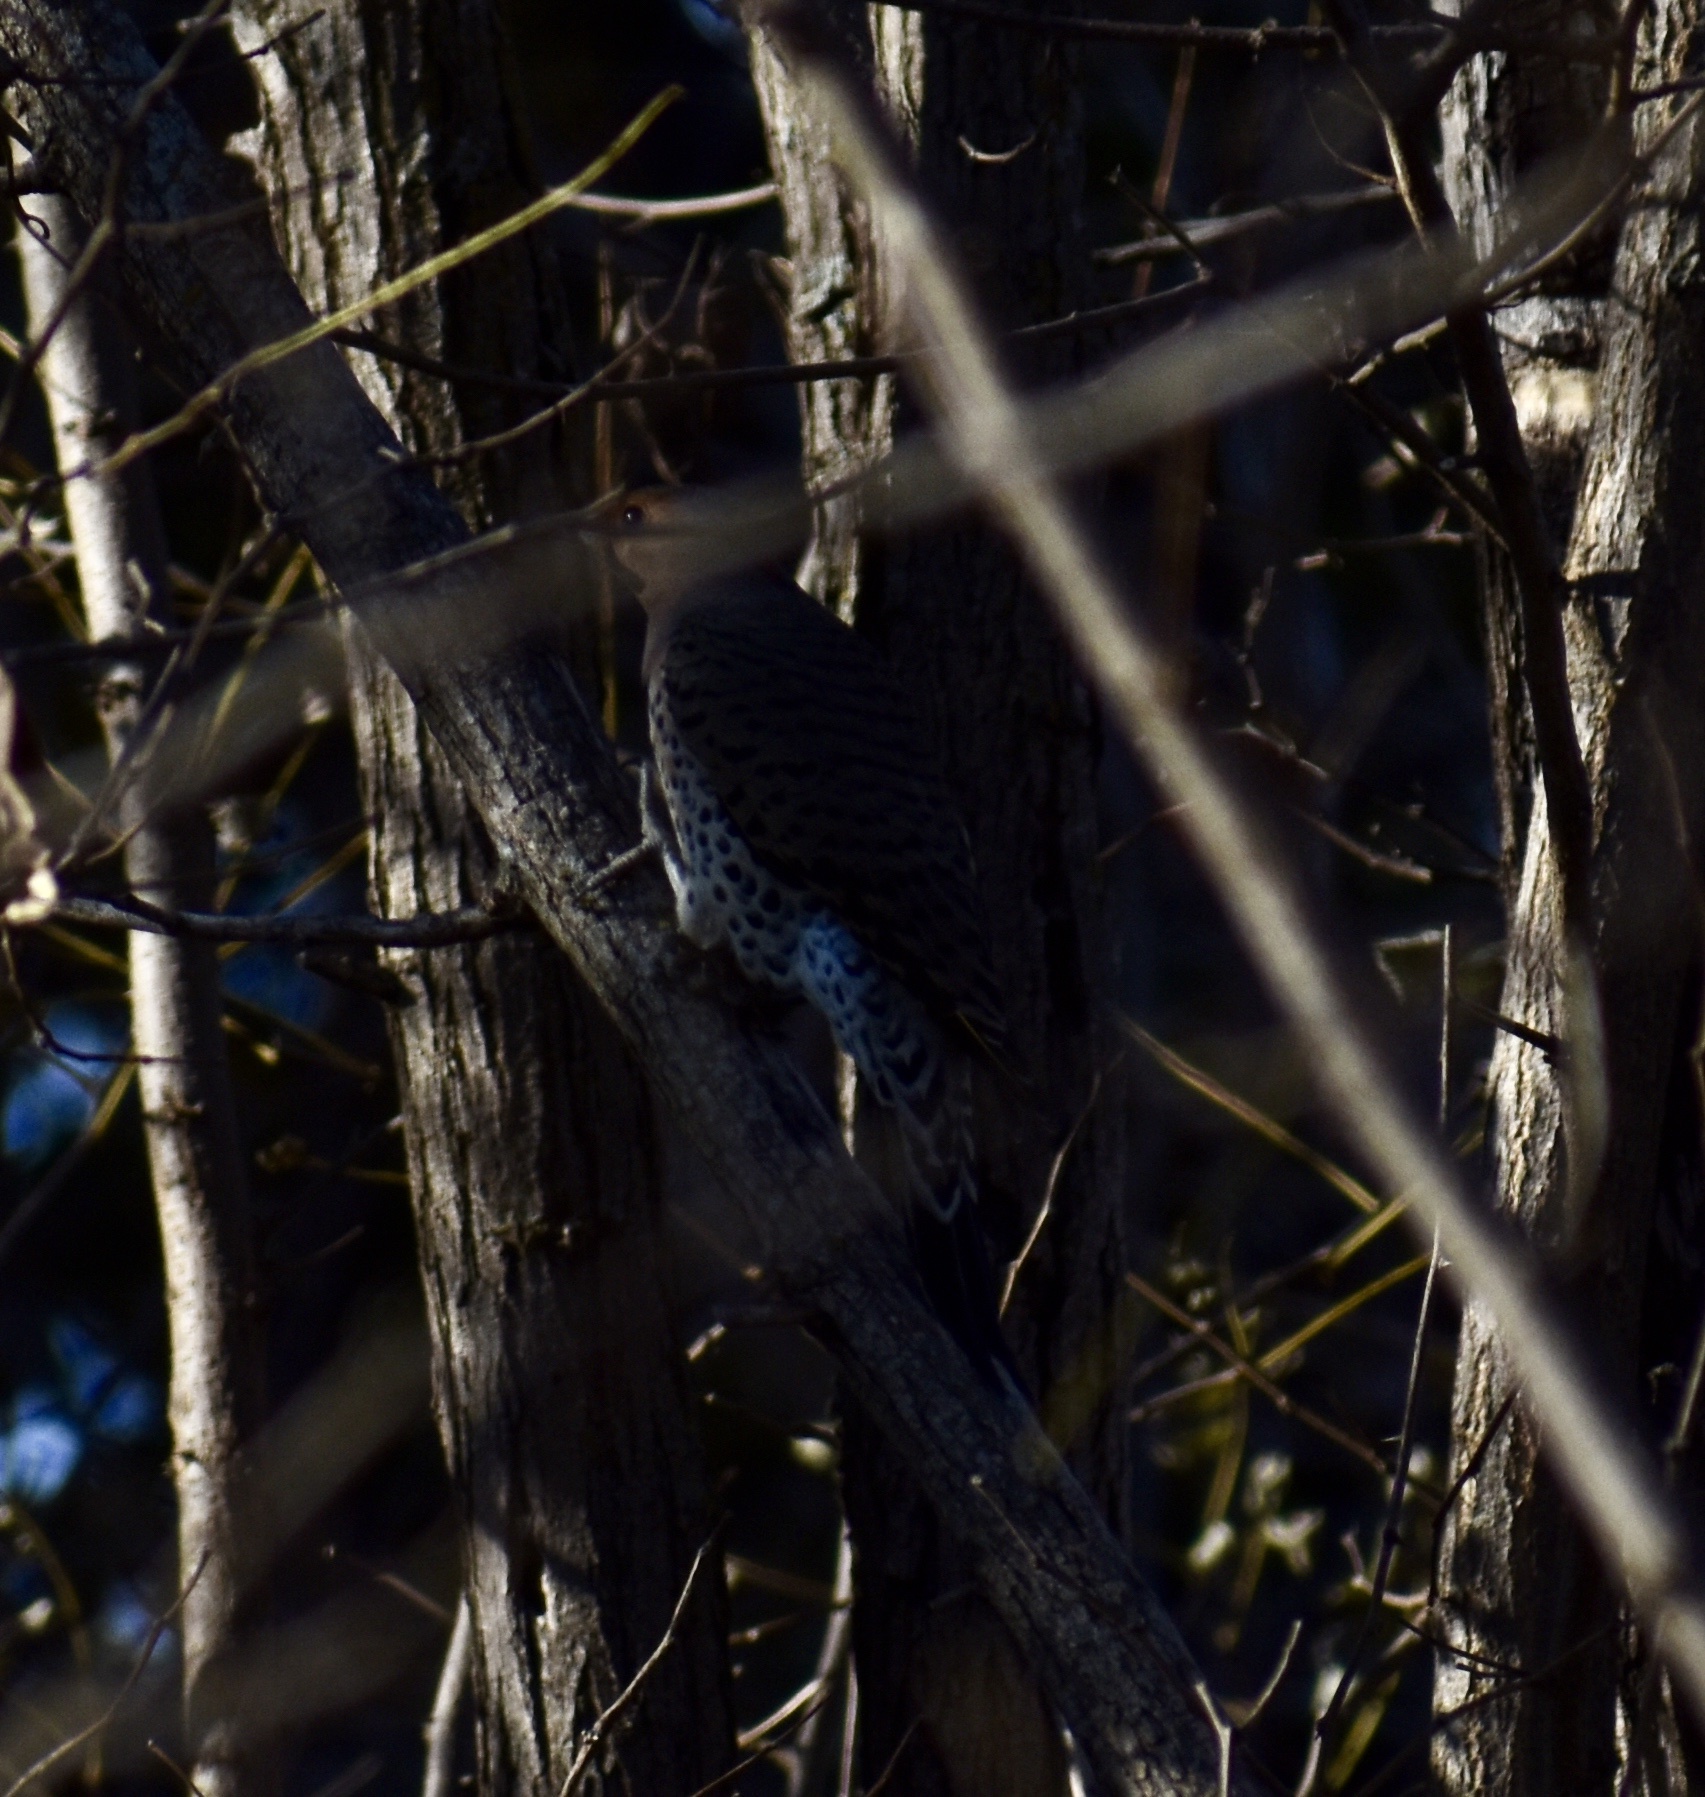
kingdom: Animalia
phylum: Chordata
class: Aves
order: Piciformes
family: Picidae
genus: Colaptes
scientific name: Colaptes auratus
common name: Northern flicker
